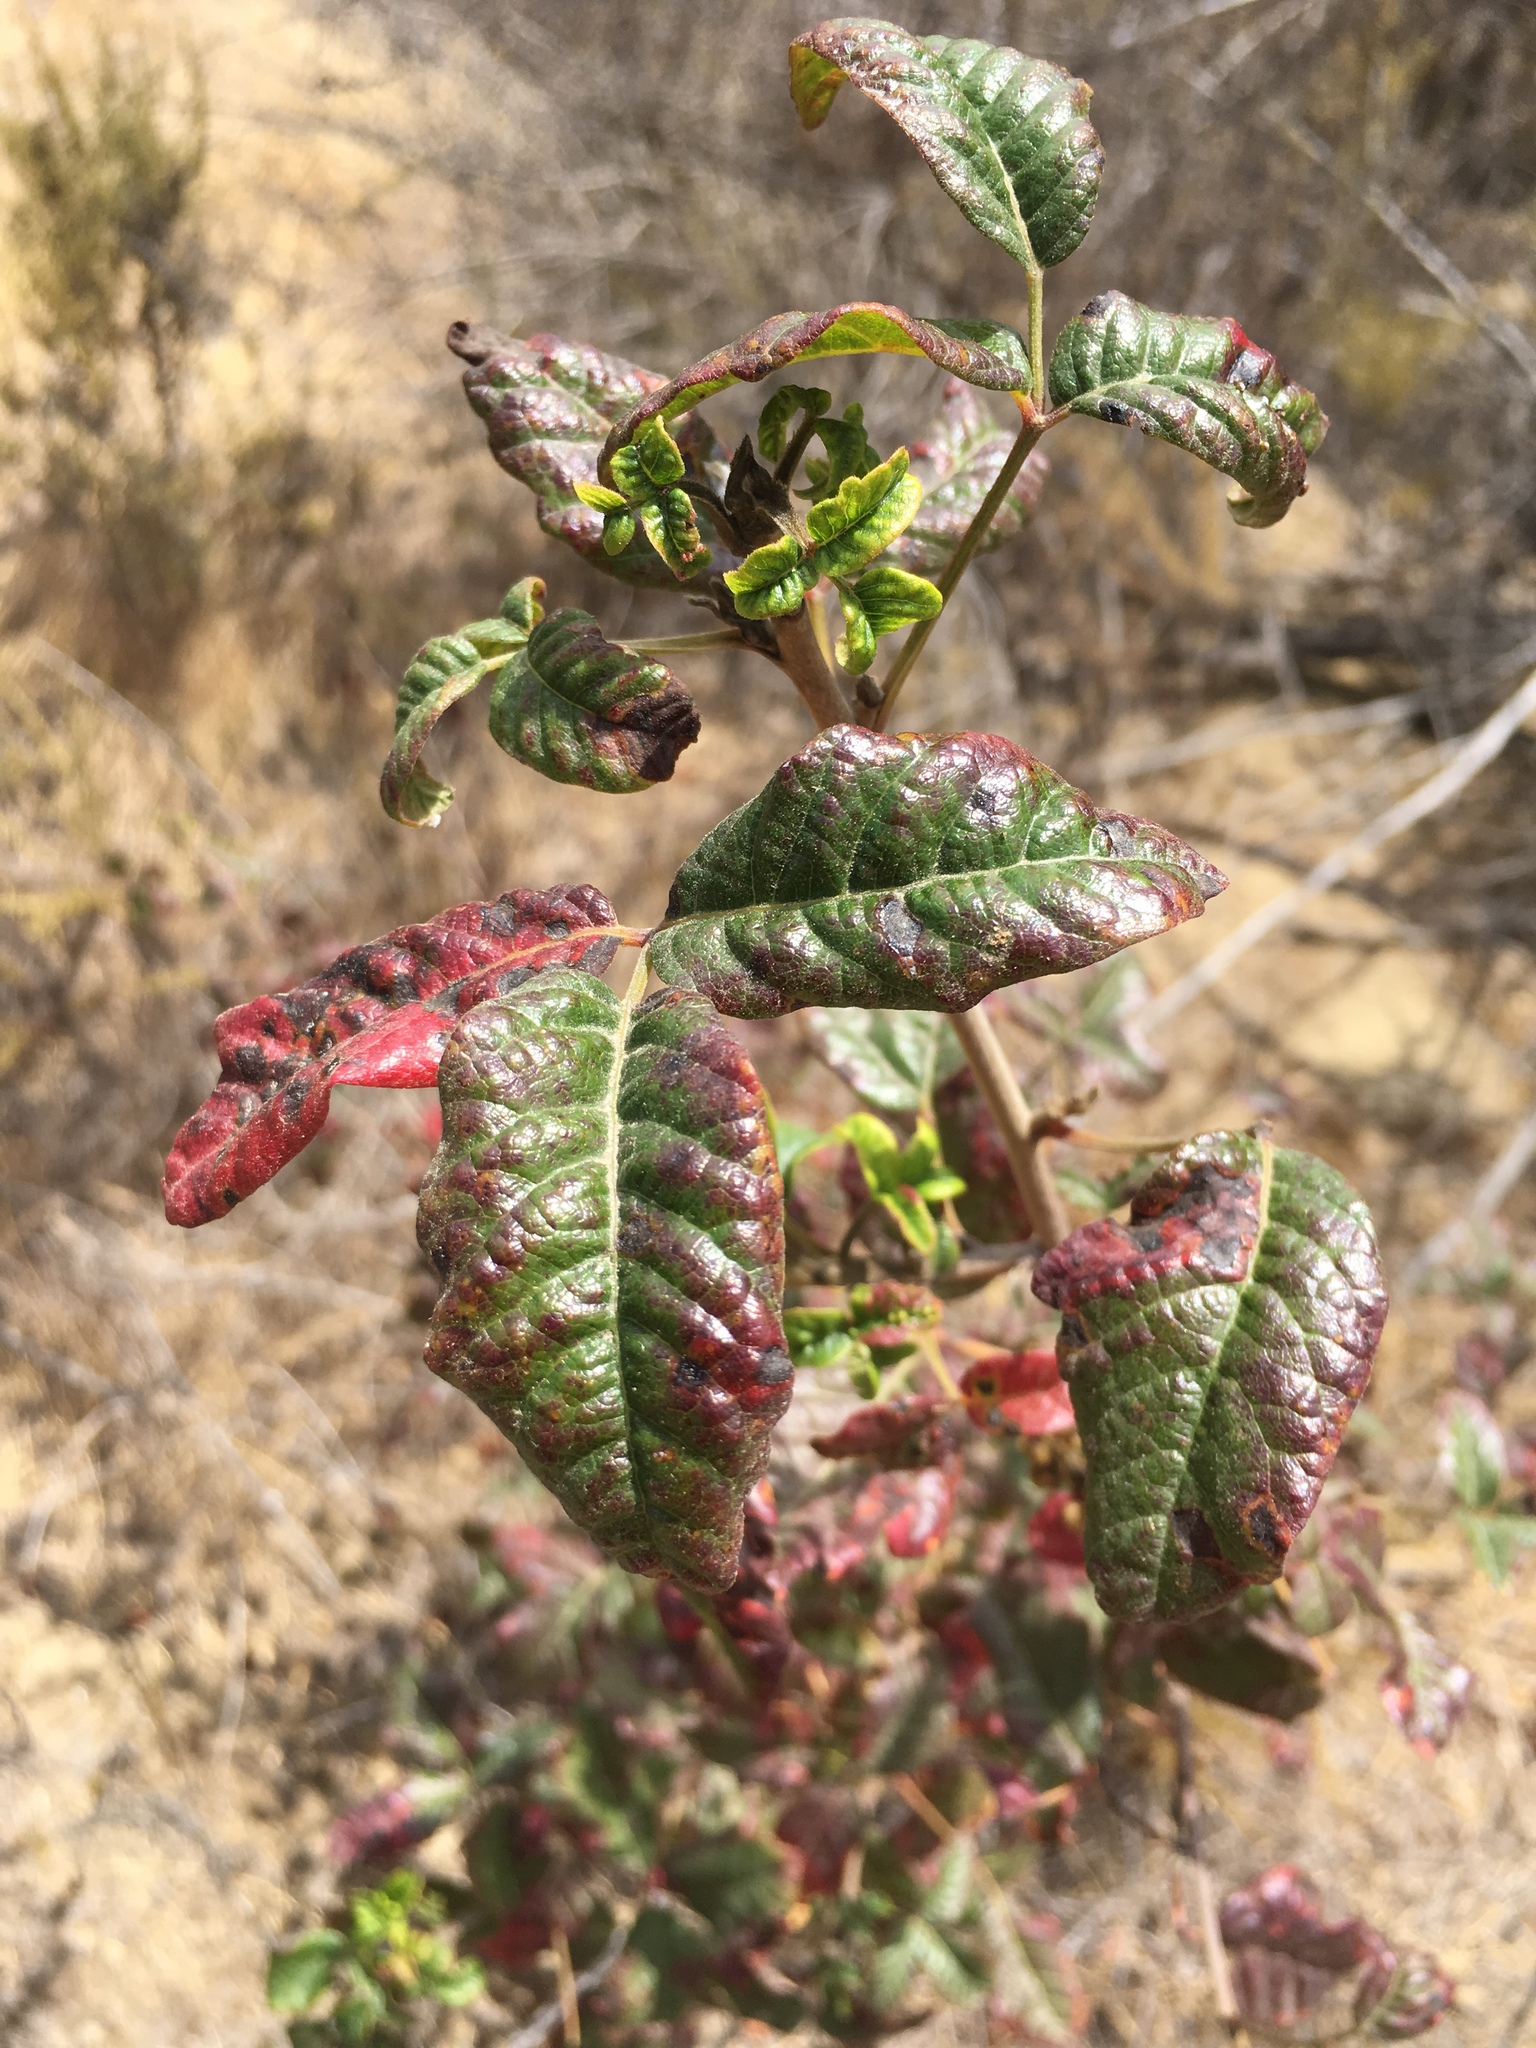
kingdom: Plantae
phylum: Tracheophyta
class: Magnoliopsida
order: Sapindales
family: Anacardiaceae
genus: Toxicodendron
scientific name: Toxicodendron diversilobum
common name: Pacific poison-oak
